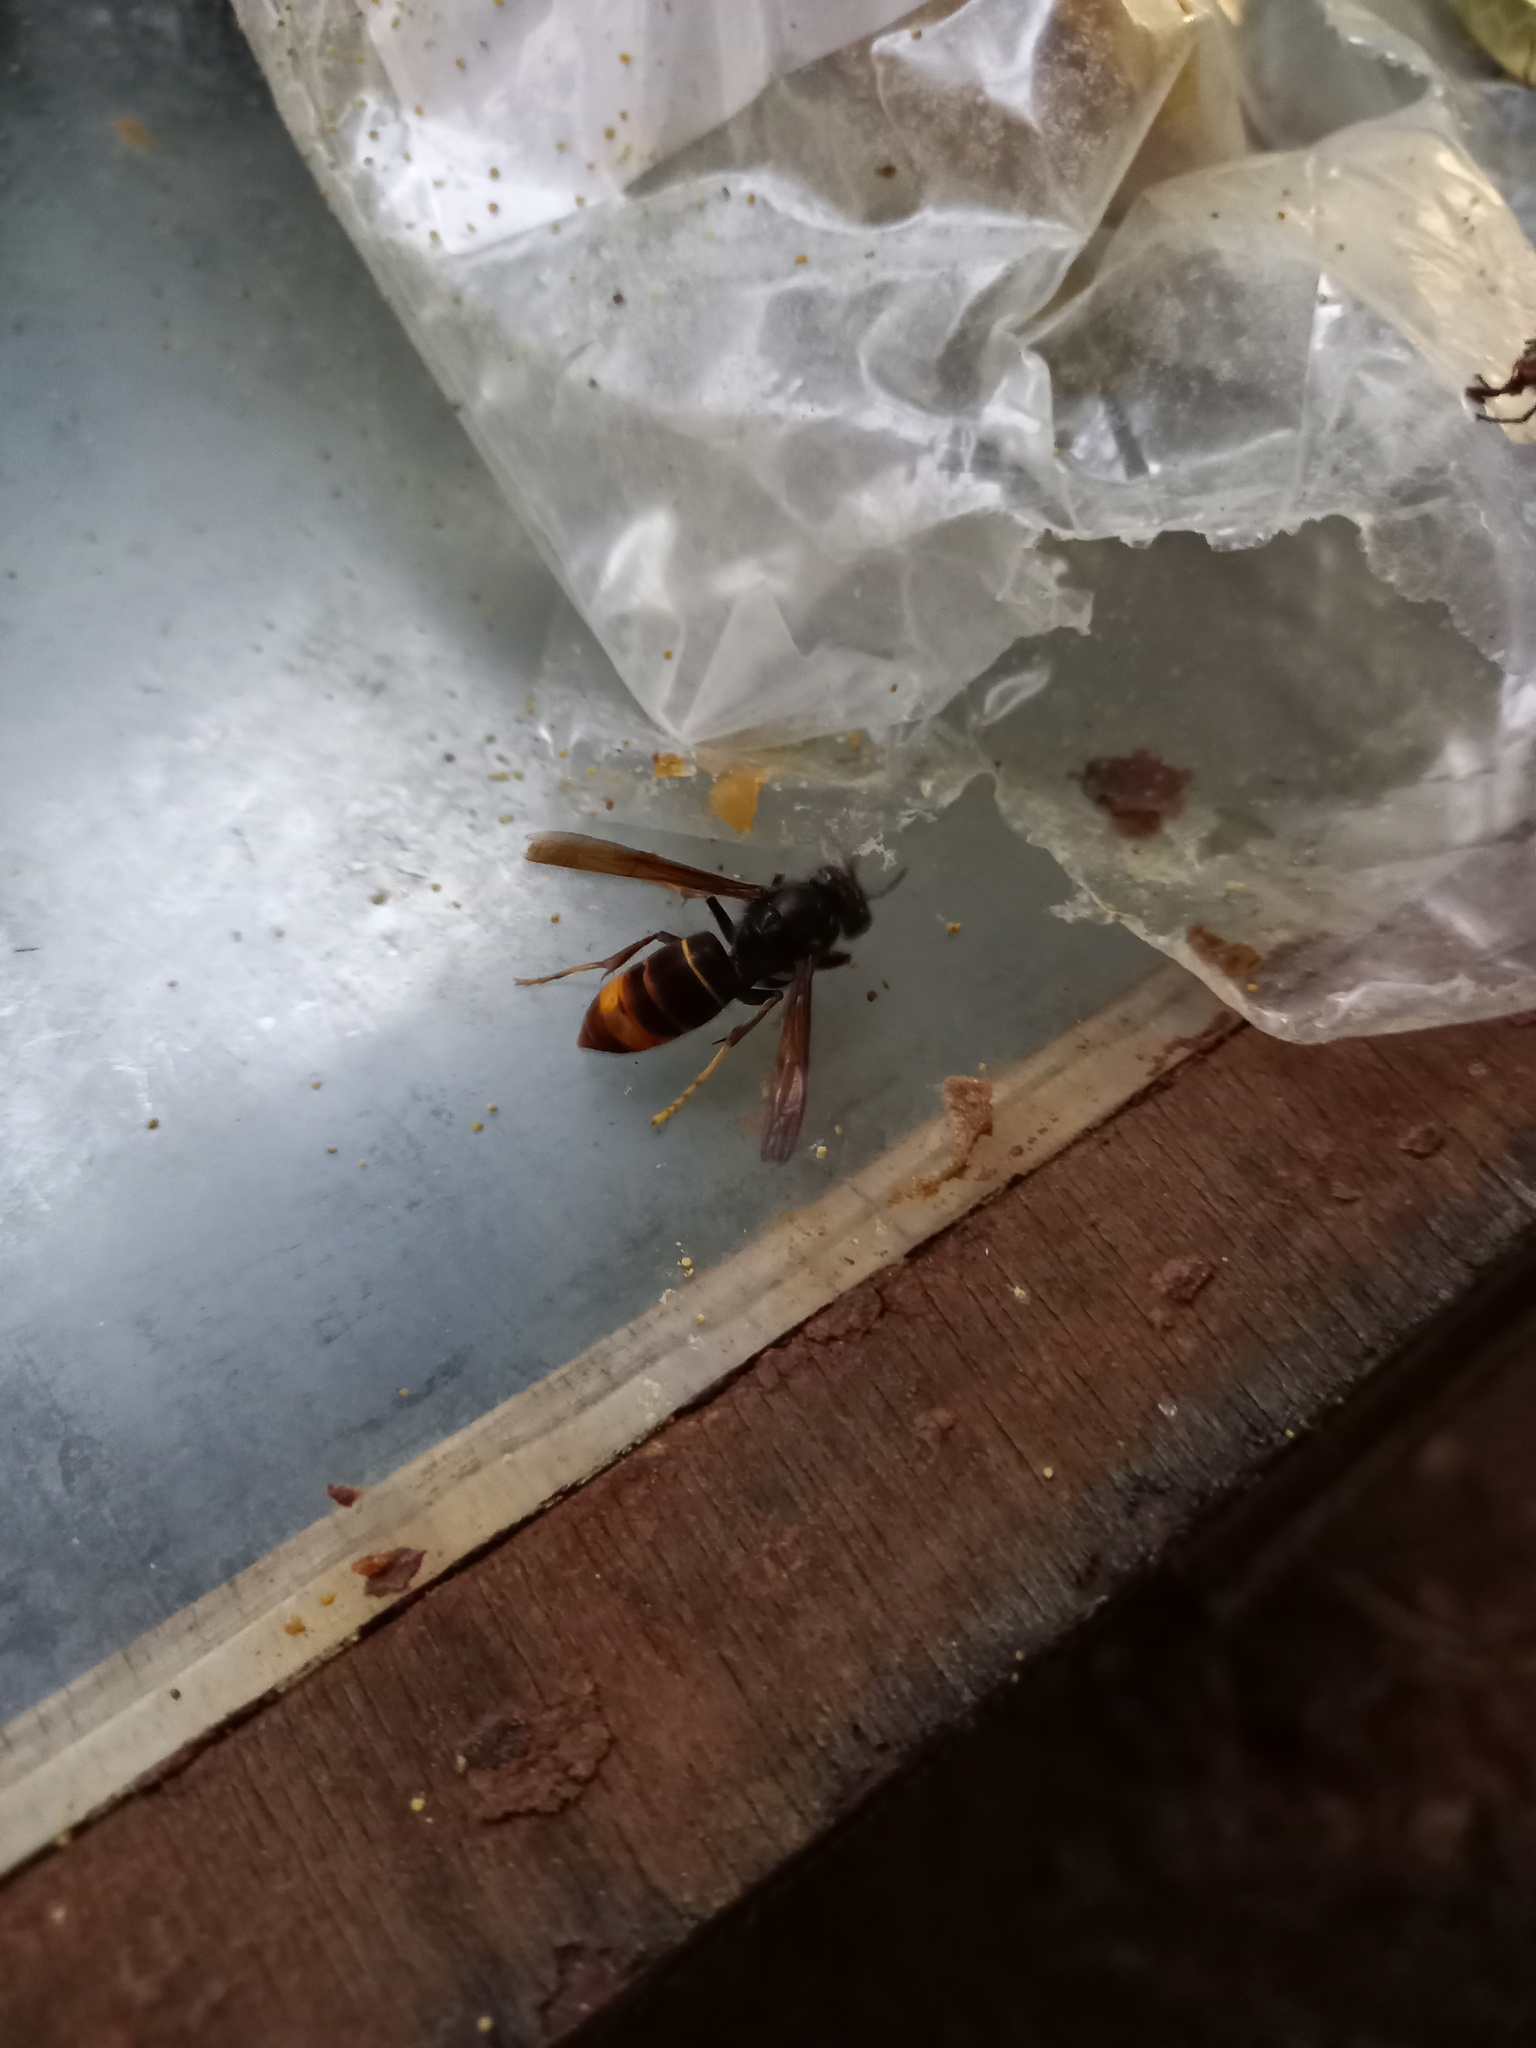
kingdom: Animalia
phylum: Arthropoda
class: Insecta
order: Hymenoptera
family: Vespidae
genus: Vespa
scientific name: Vespa velutina
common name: Asian hornet
